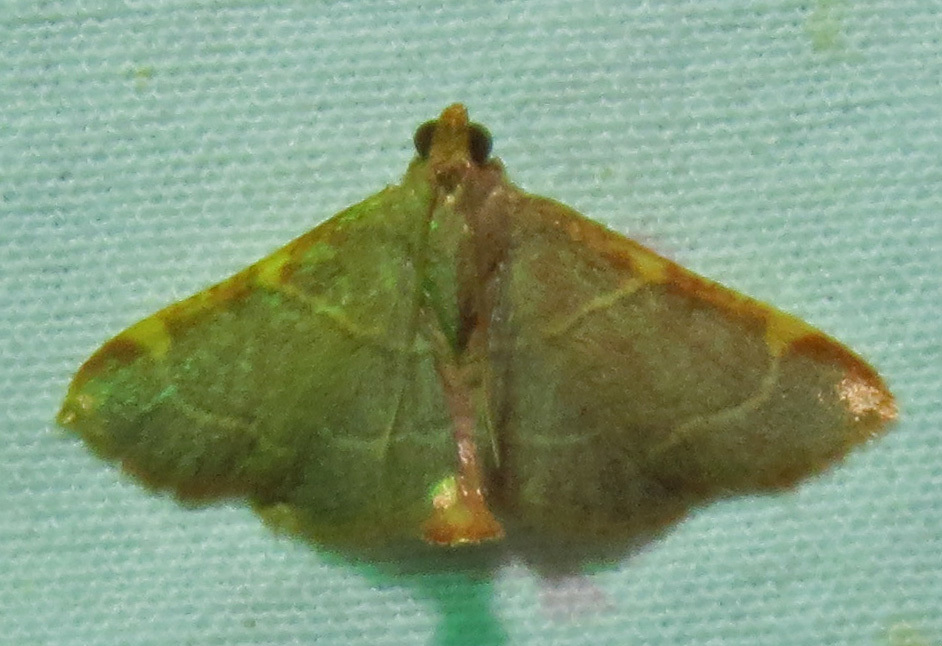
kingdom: Animalia
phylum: Arthropoda
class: Insecta
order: Lepidoptera
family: Pyralidae
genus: Hypsopygia
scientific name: Hypsopygia binodulalis
